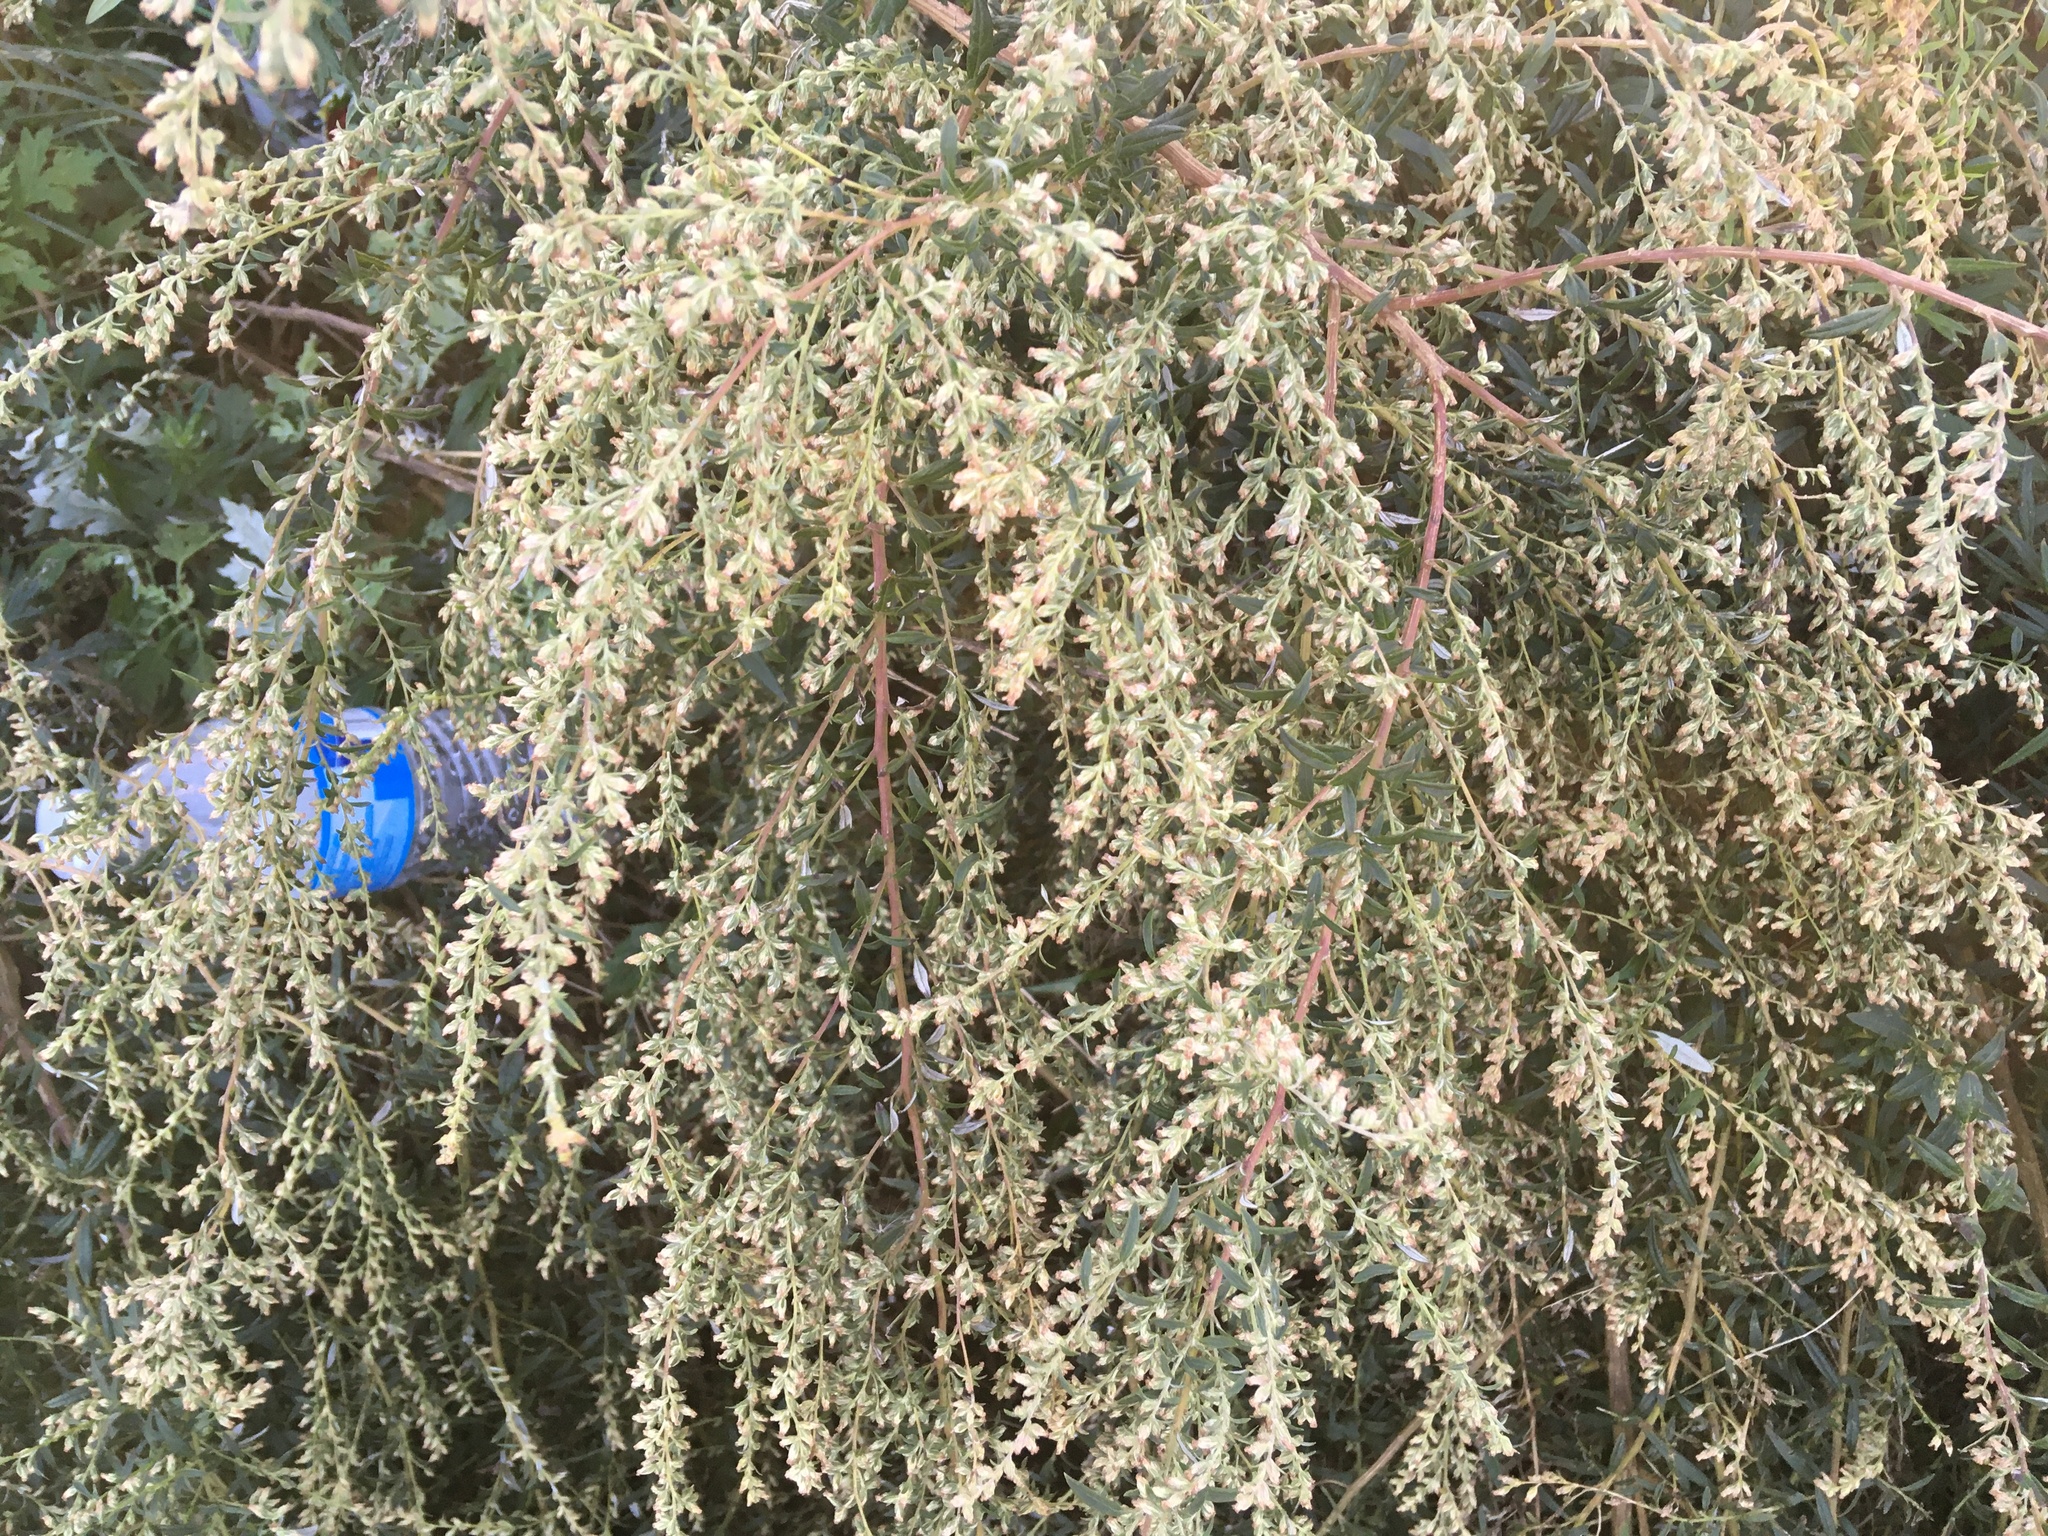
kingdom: Plantae
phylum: Tracheophyta
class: Magnoliopsida
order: Asterales
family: Asteraceae
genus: Artemisia
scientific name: Artemisia vulgaris
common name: Mugwort
